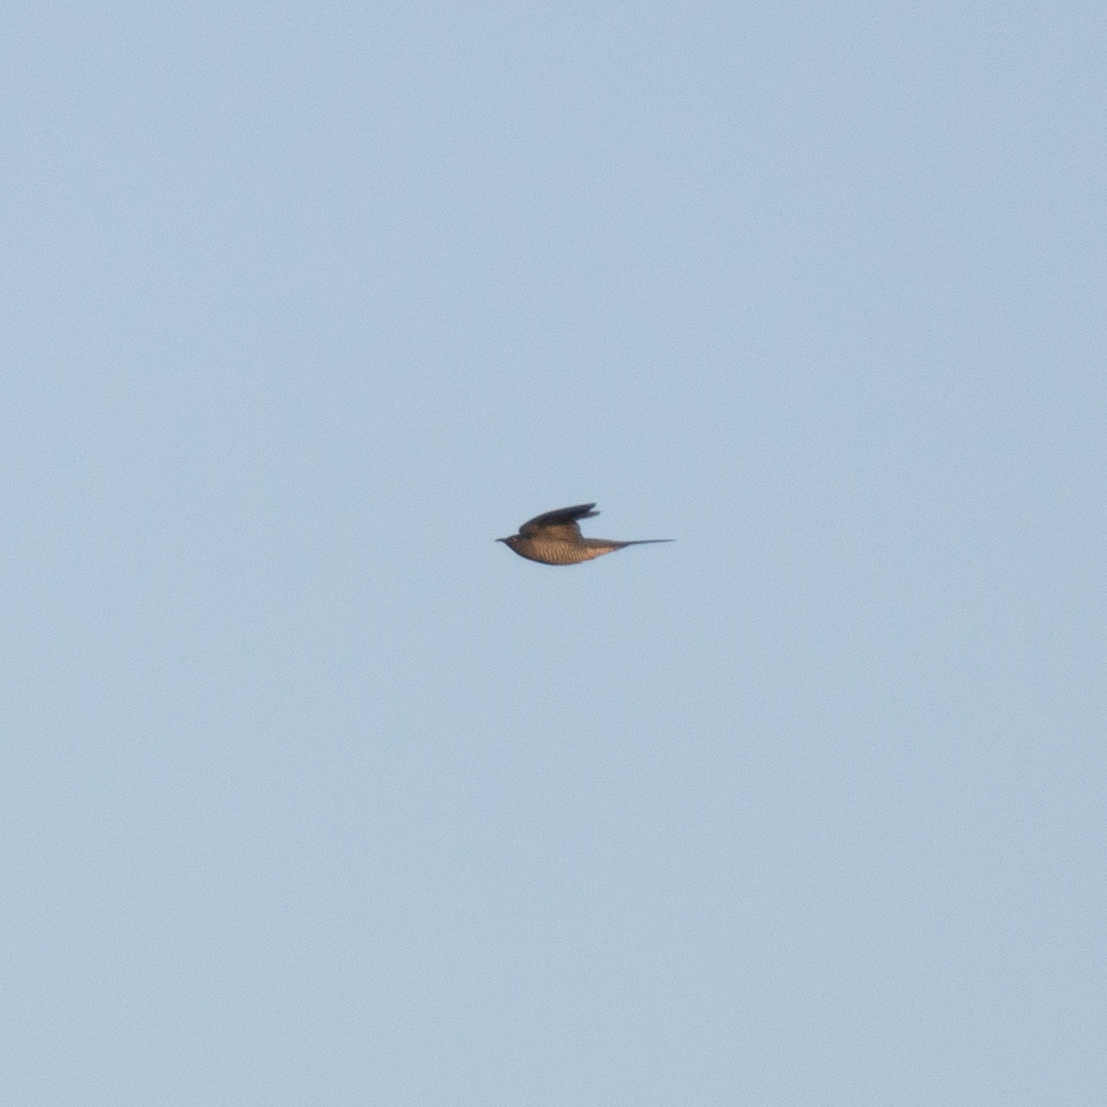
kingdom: Animalia
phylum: Chordata
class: Aves
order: Cuculiformes
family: Cuculidae
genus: Cuculus
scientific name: Cuculus canorus
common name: Common cuckoo
